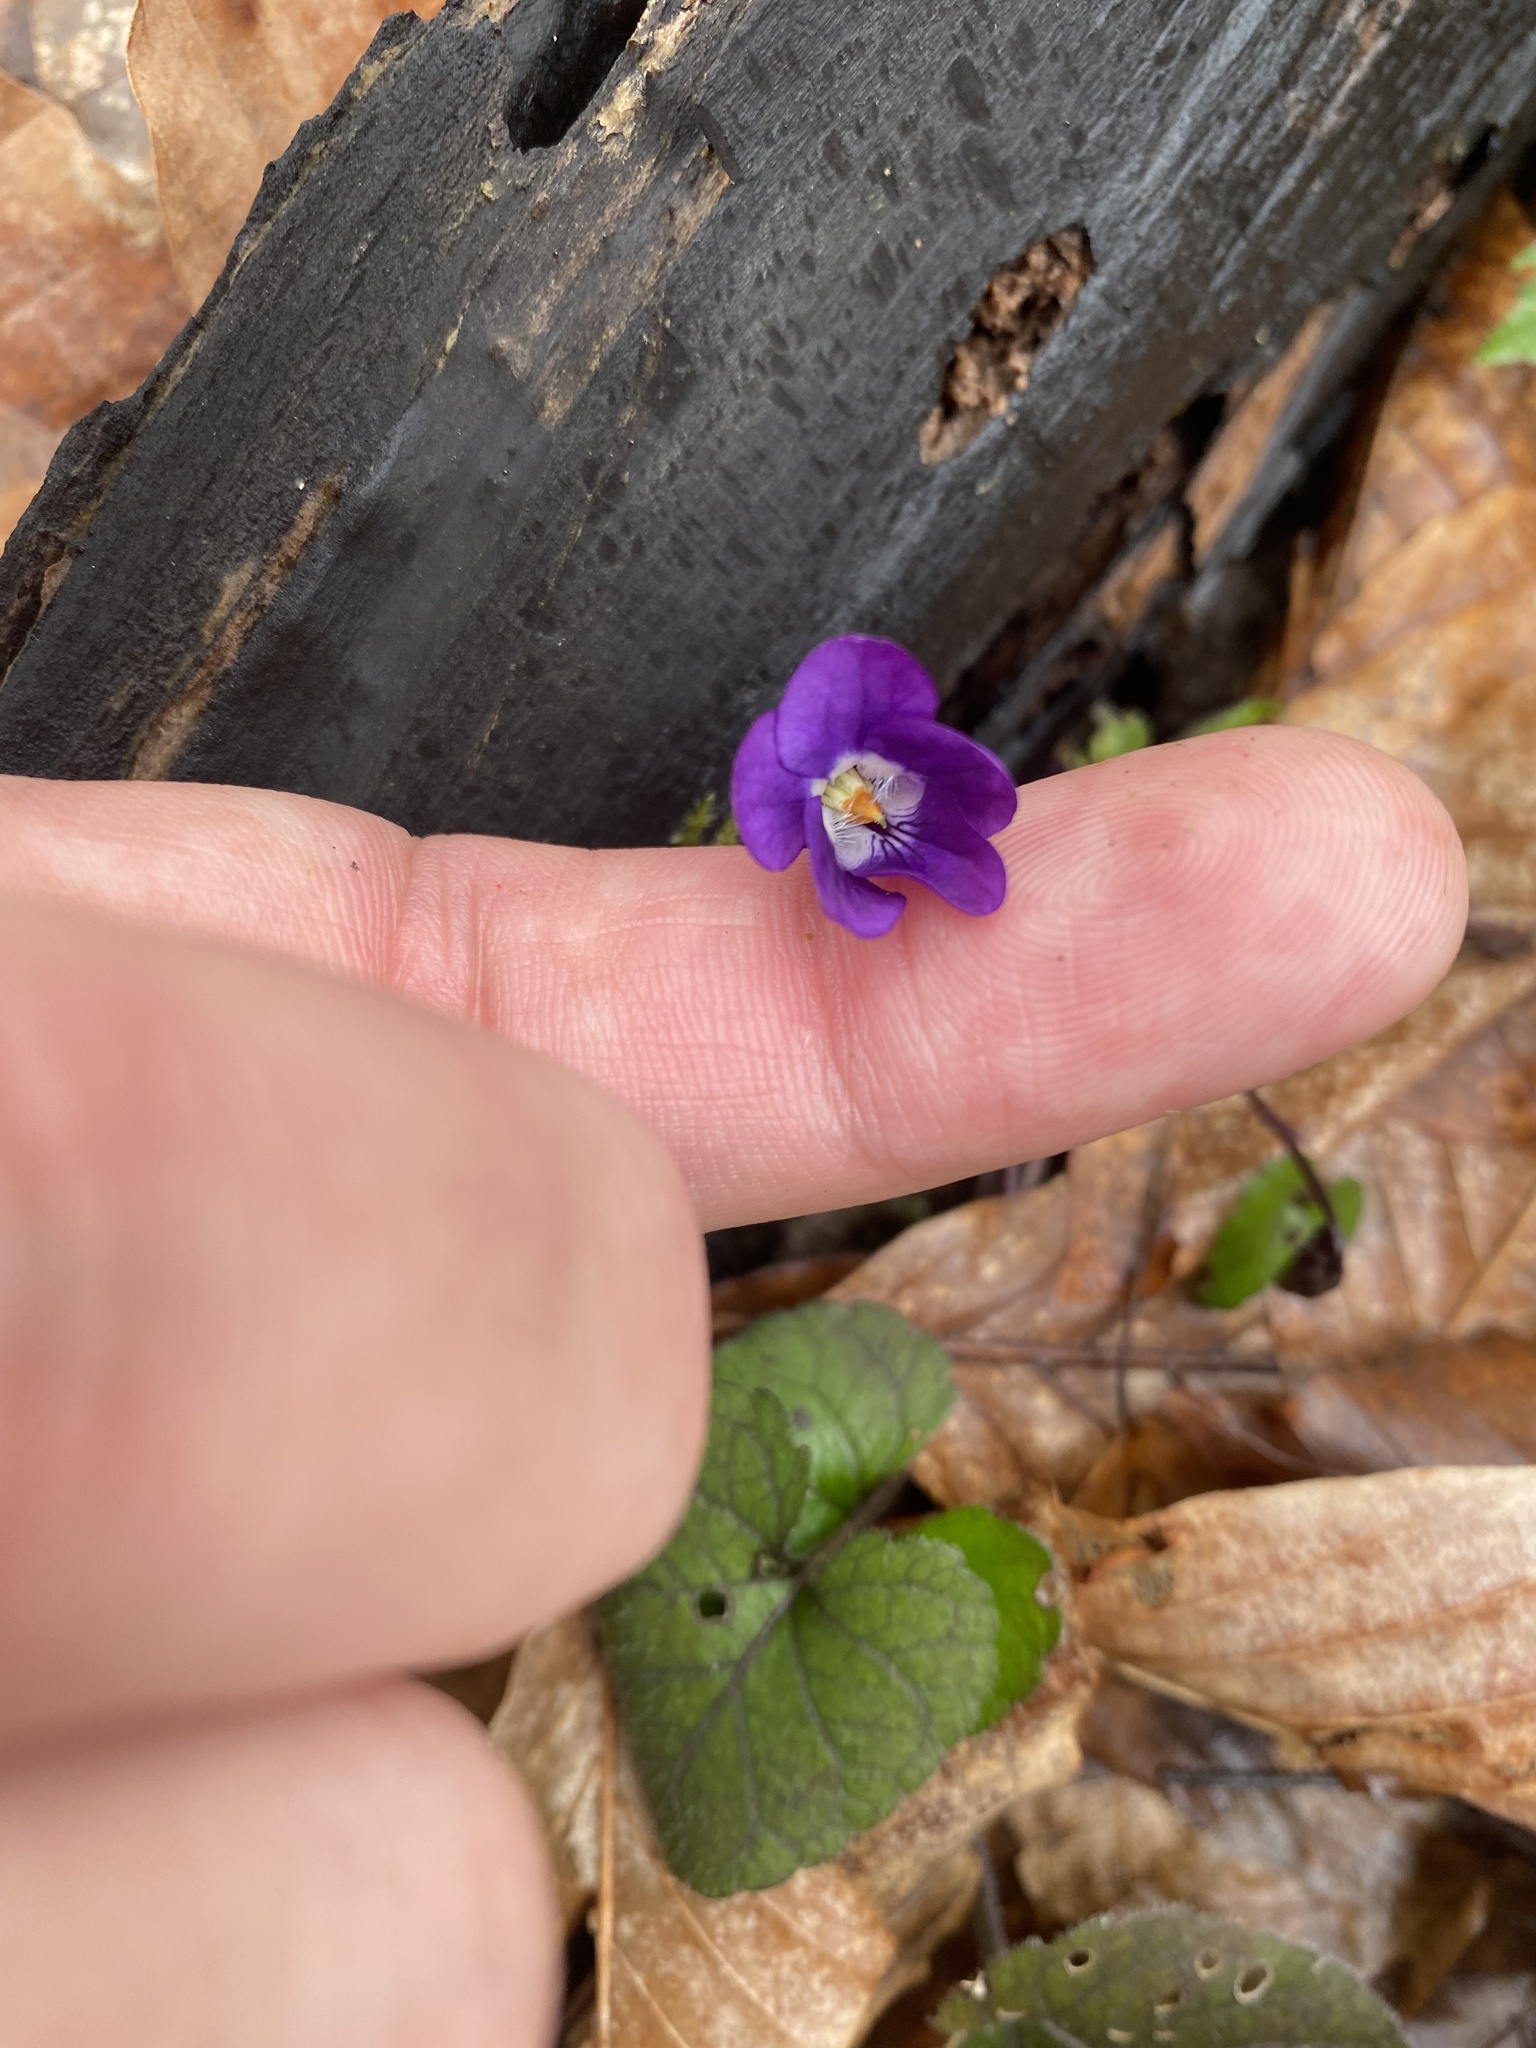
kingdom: Plantae
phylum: Tracheophyta
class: Magnoliopsida
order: Malpighiales
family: Violaceae
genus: Viola
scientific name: Viola alba
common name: White violet
